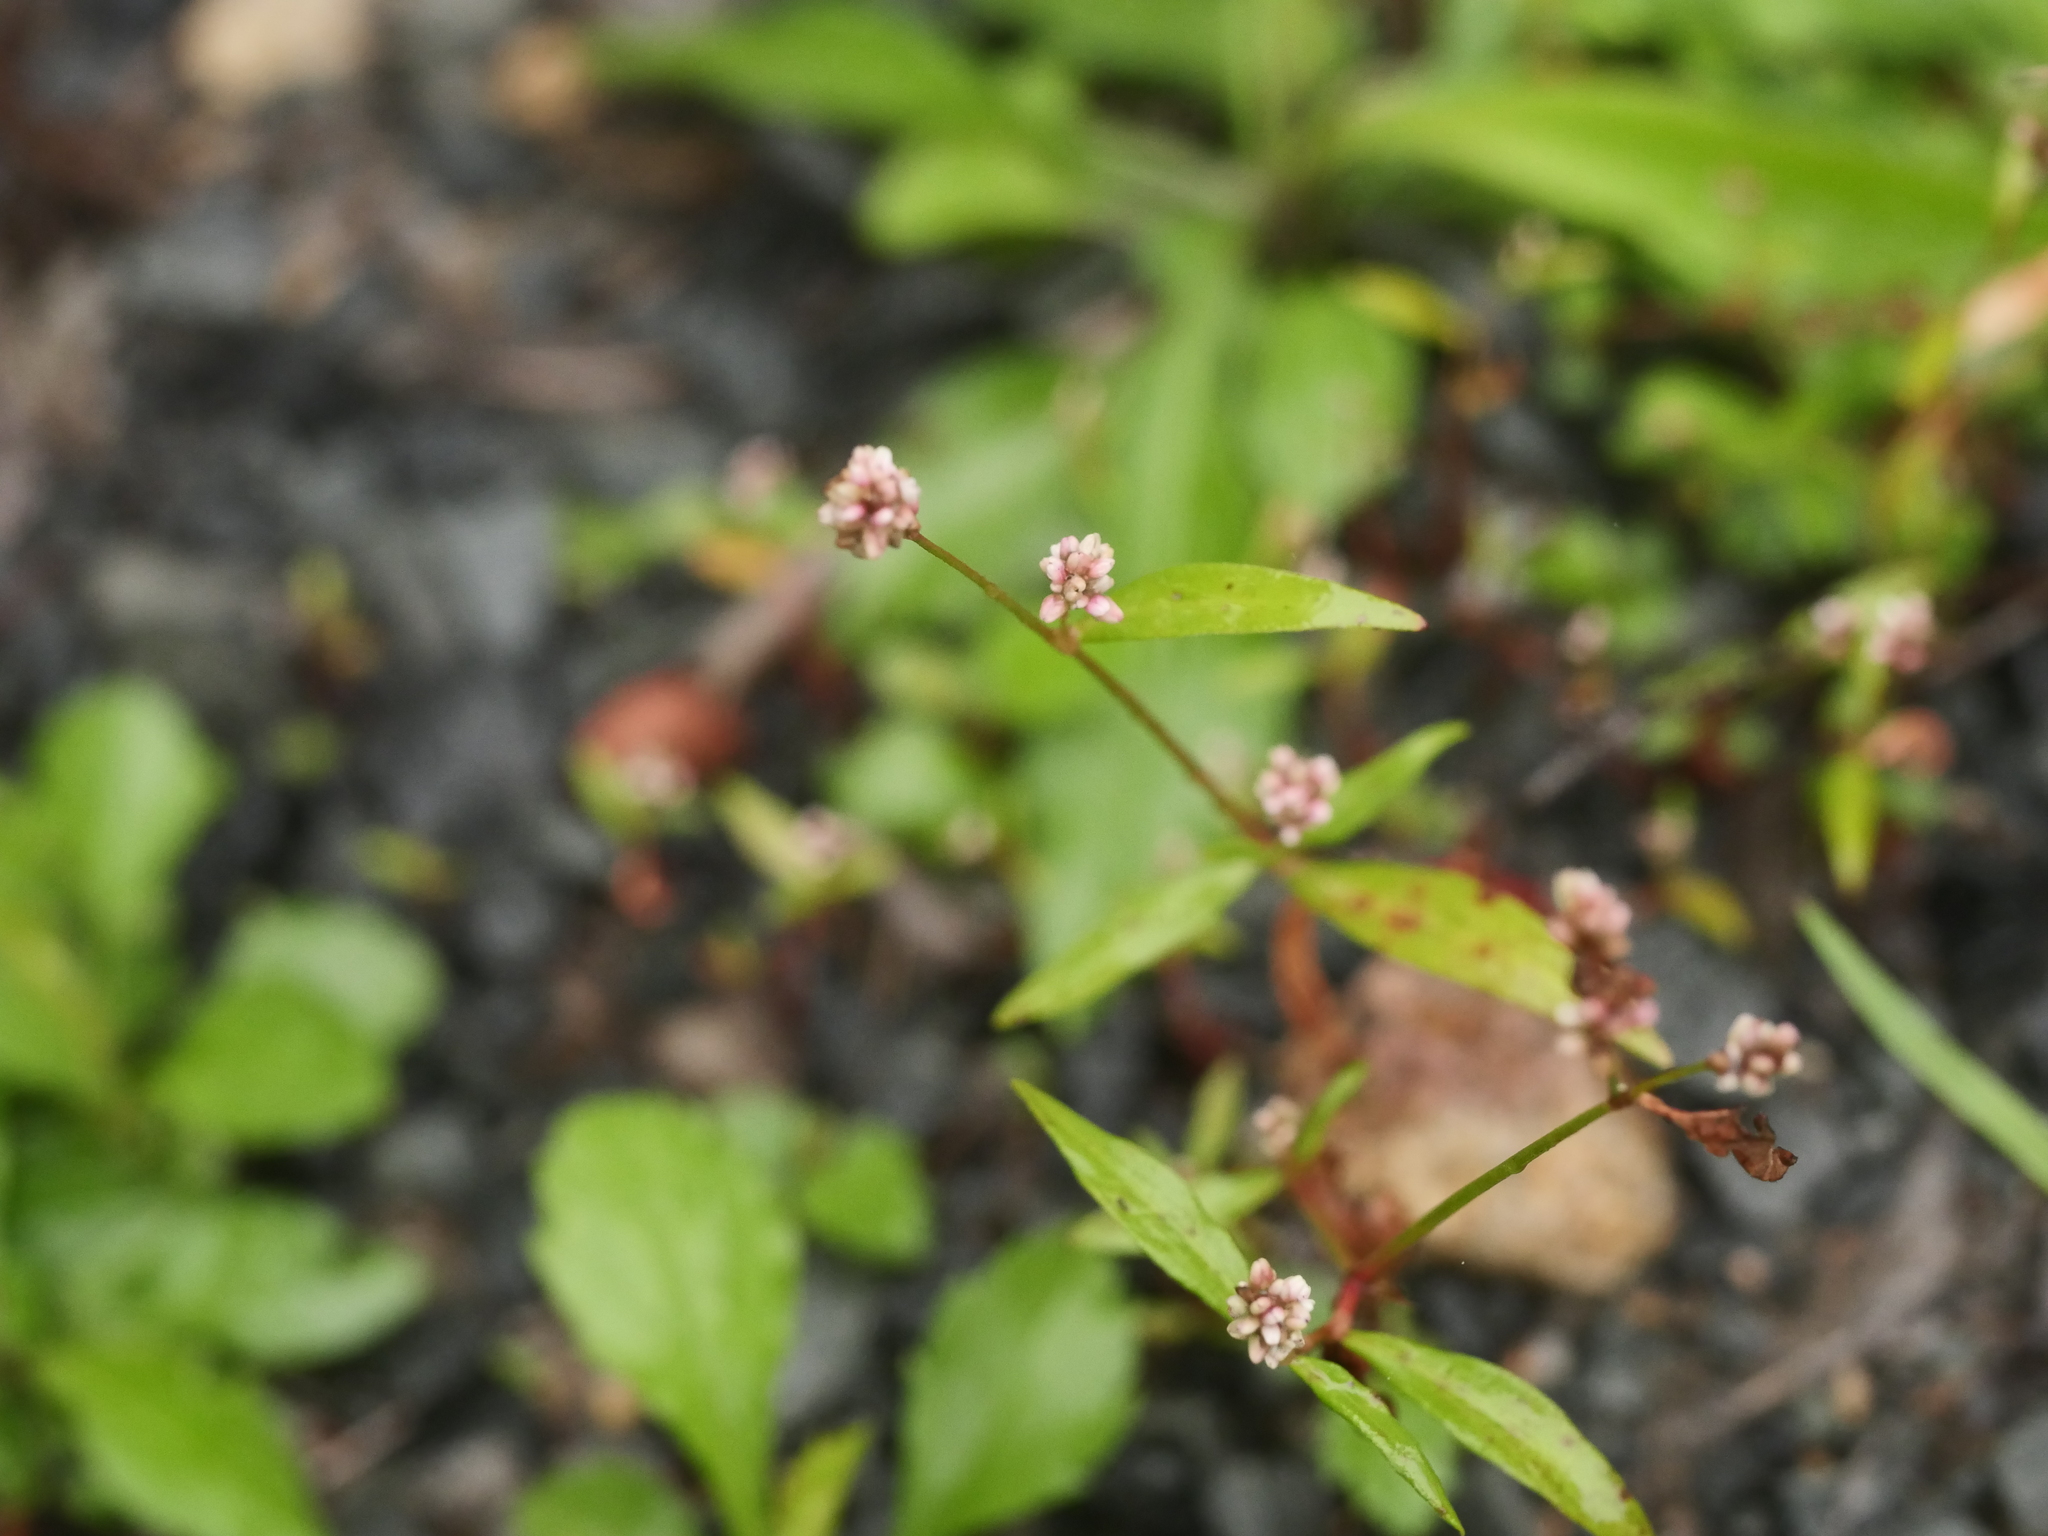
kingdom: Plantae
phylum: Tracheophyta
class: Magnoliopsida
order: Caryophyllales
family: Polygonaceae
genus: Persicaria
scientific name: Persicaria maculosa
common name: Redshank
